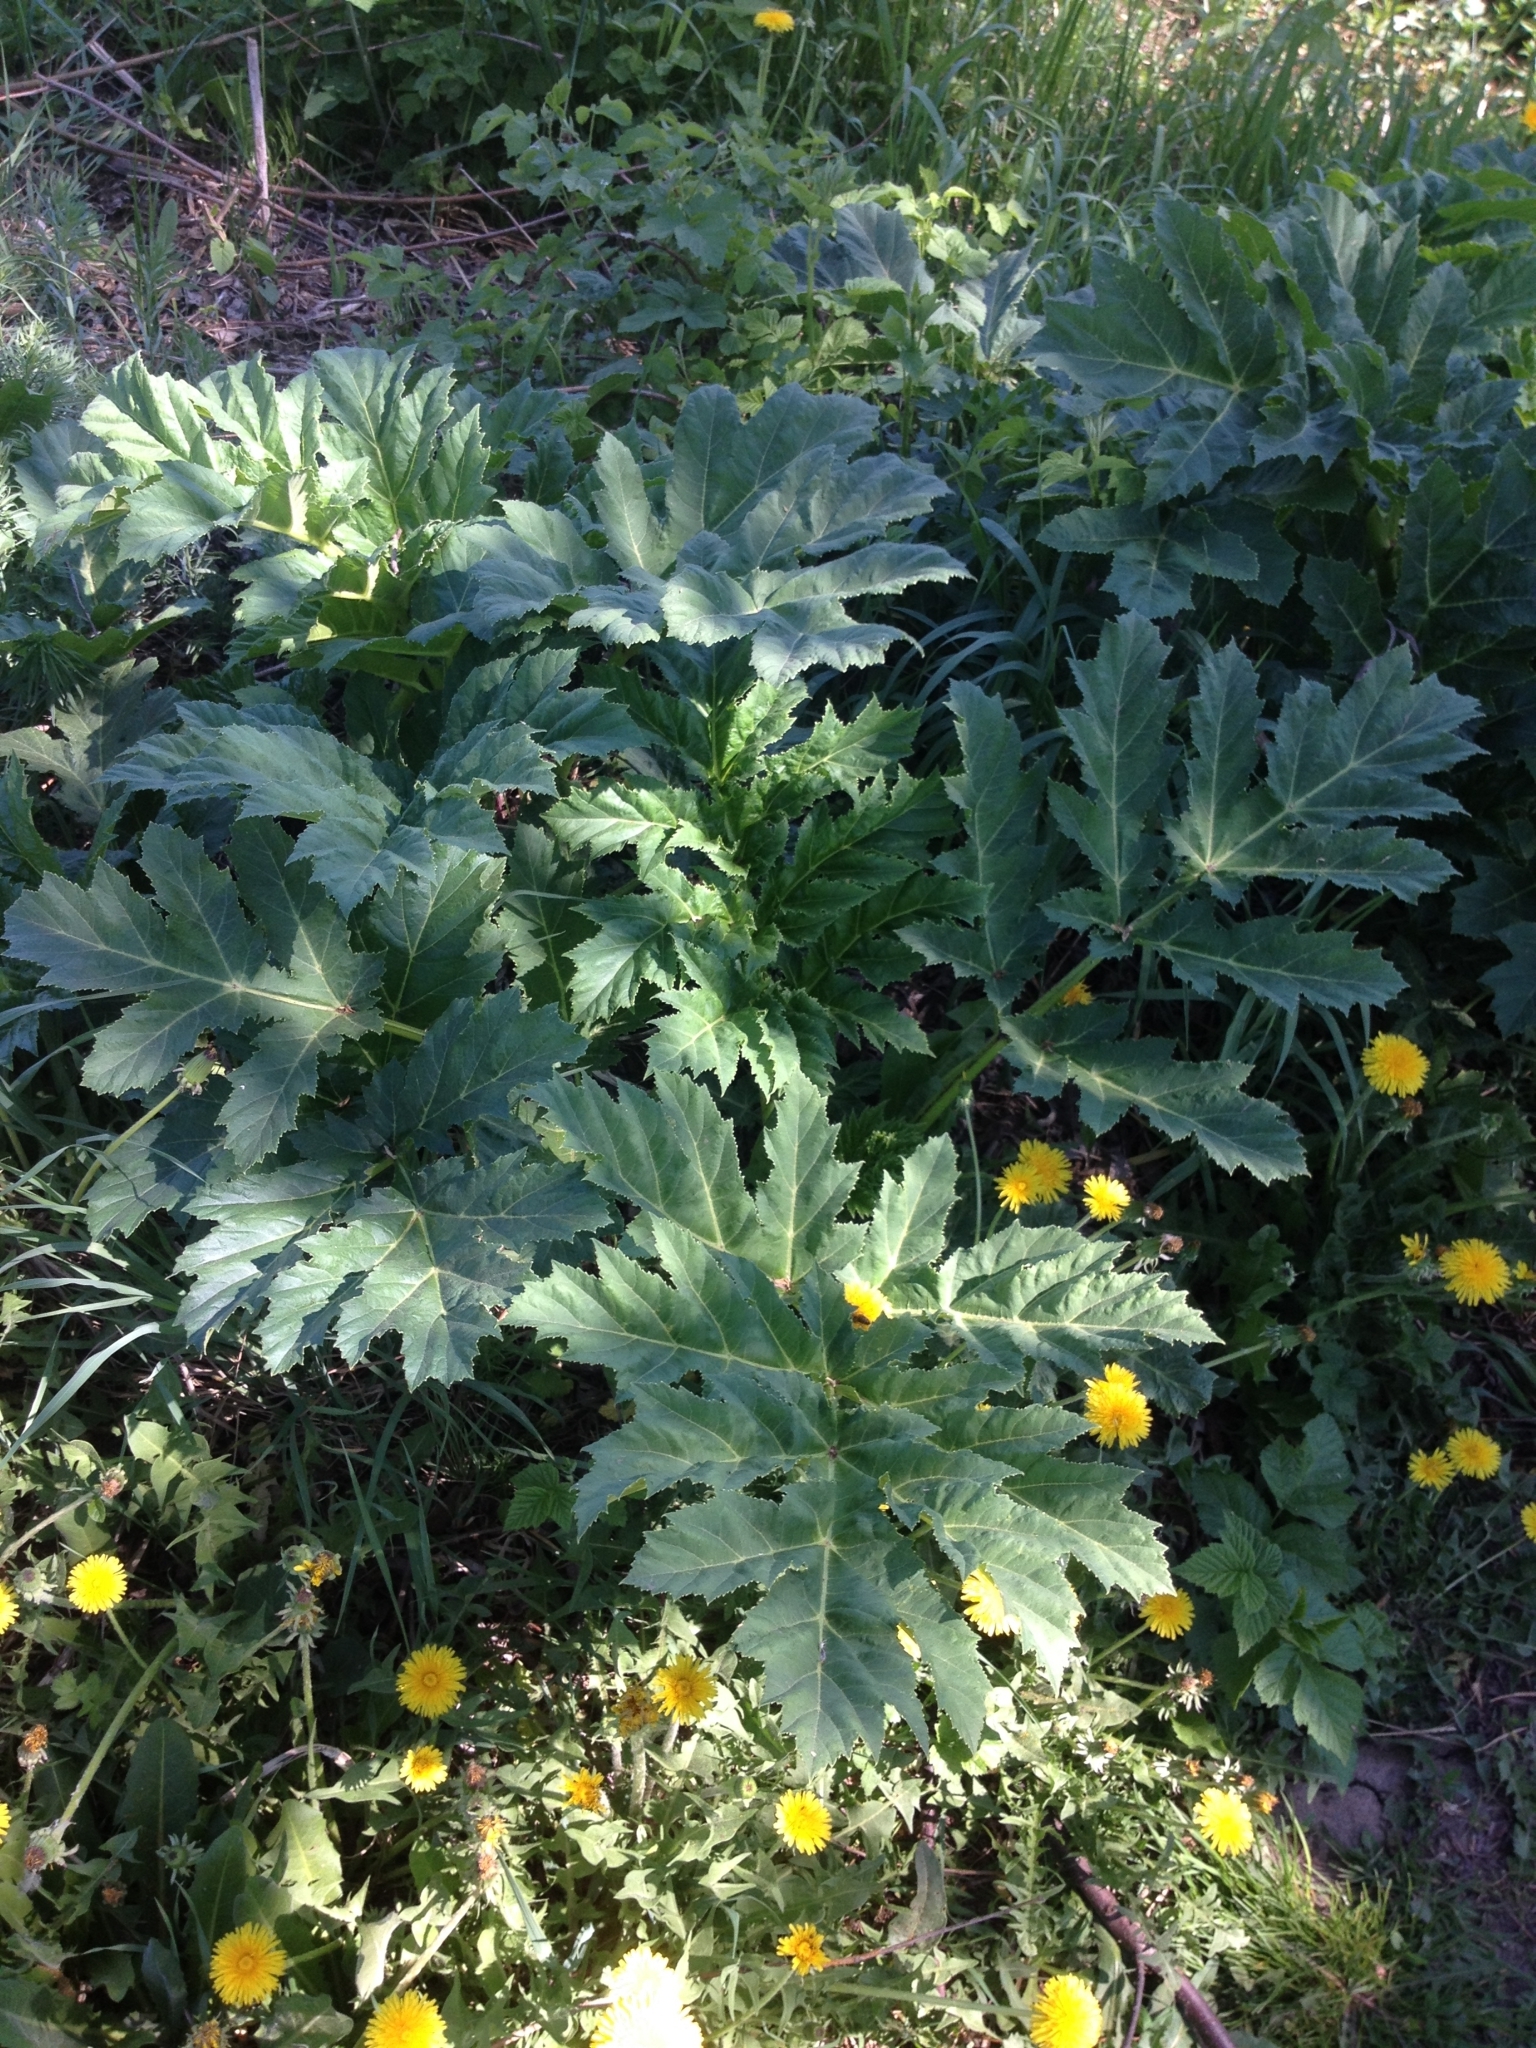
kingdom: Plantae
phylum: Tracheophyta
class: Magnoliopsida
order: Apiales
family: Apiaceae
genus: Heracleum
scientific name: Heracleum sosnowskyi
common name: Sosnowsky's hogweed
